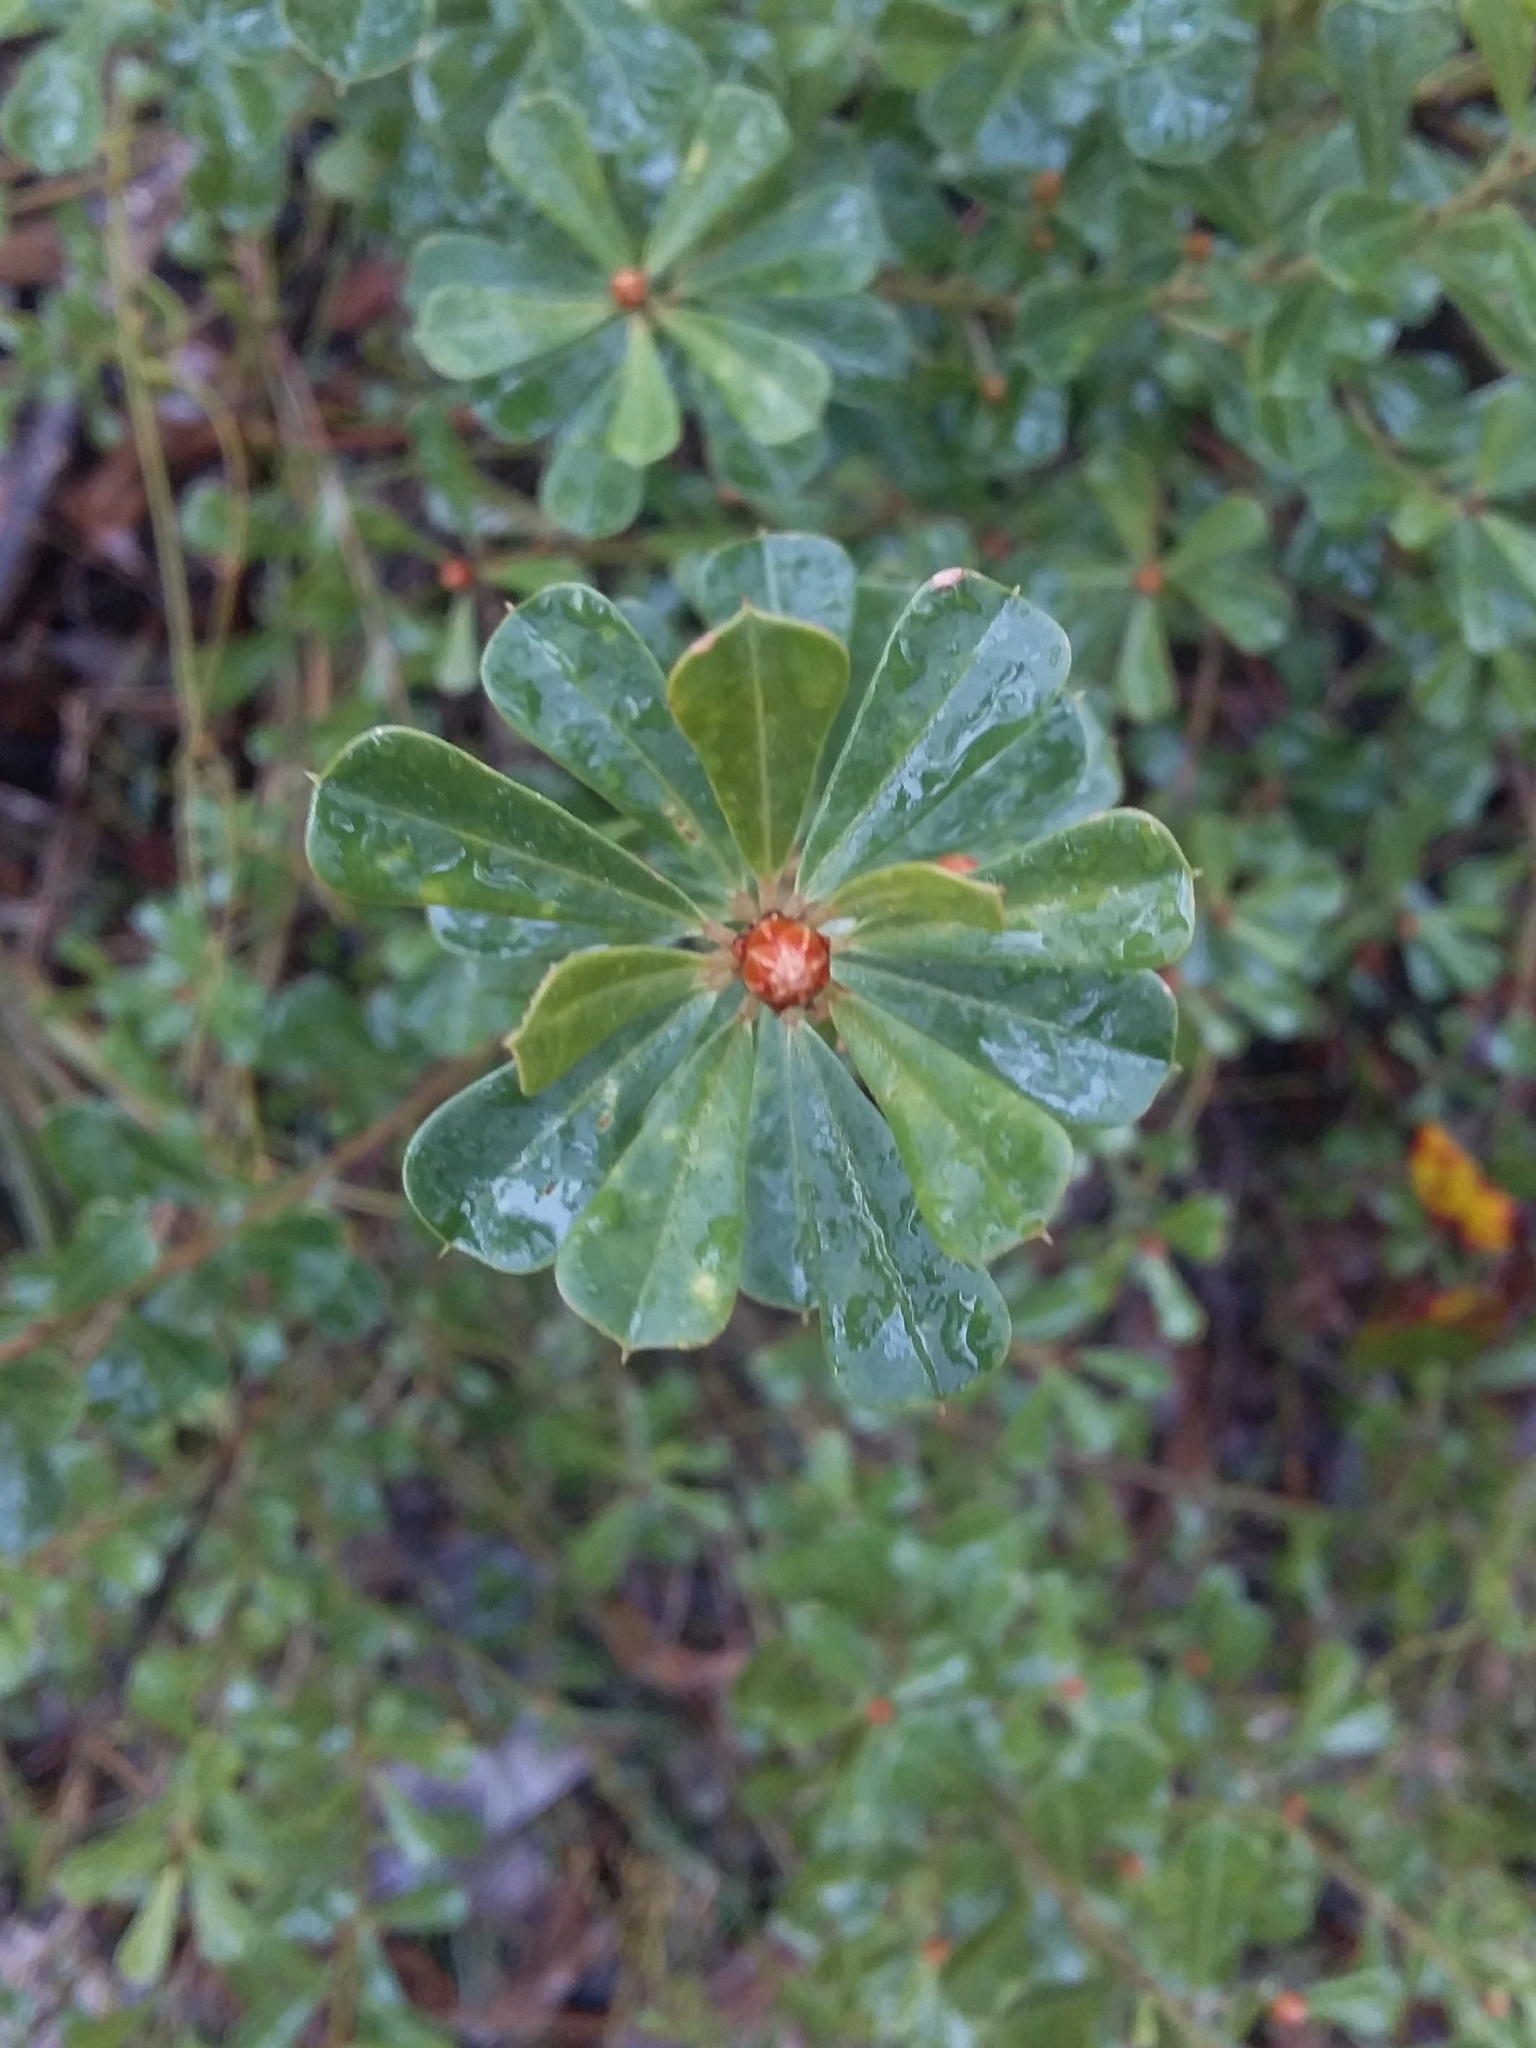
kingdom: Plantae
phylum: Tracheophyta
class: Magnoliopsida
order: Fabales
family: Fabaceae
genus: Pultenaea
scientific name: Pultenaea daphnoides
